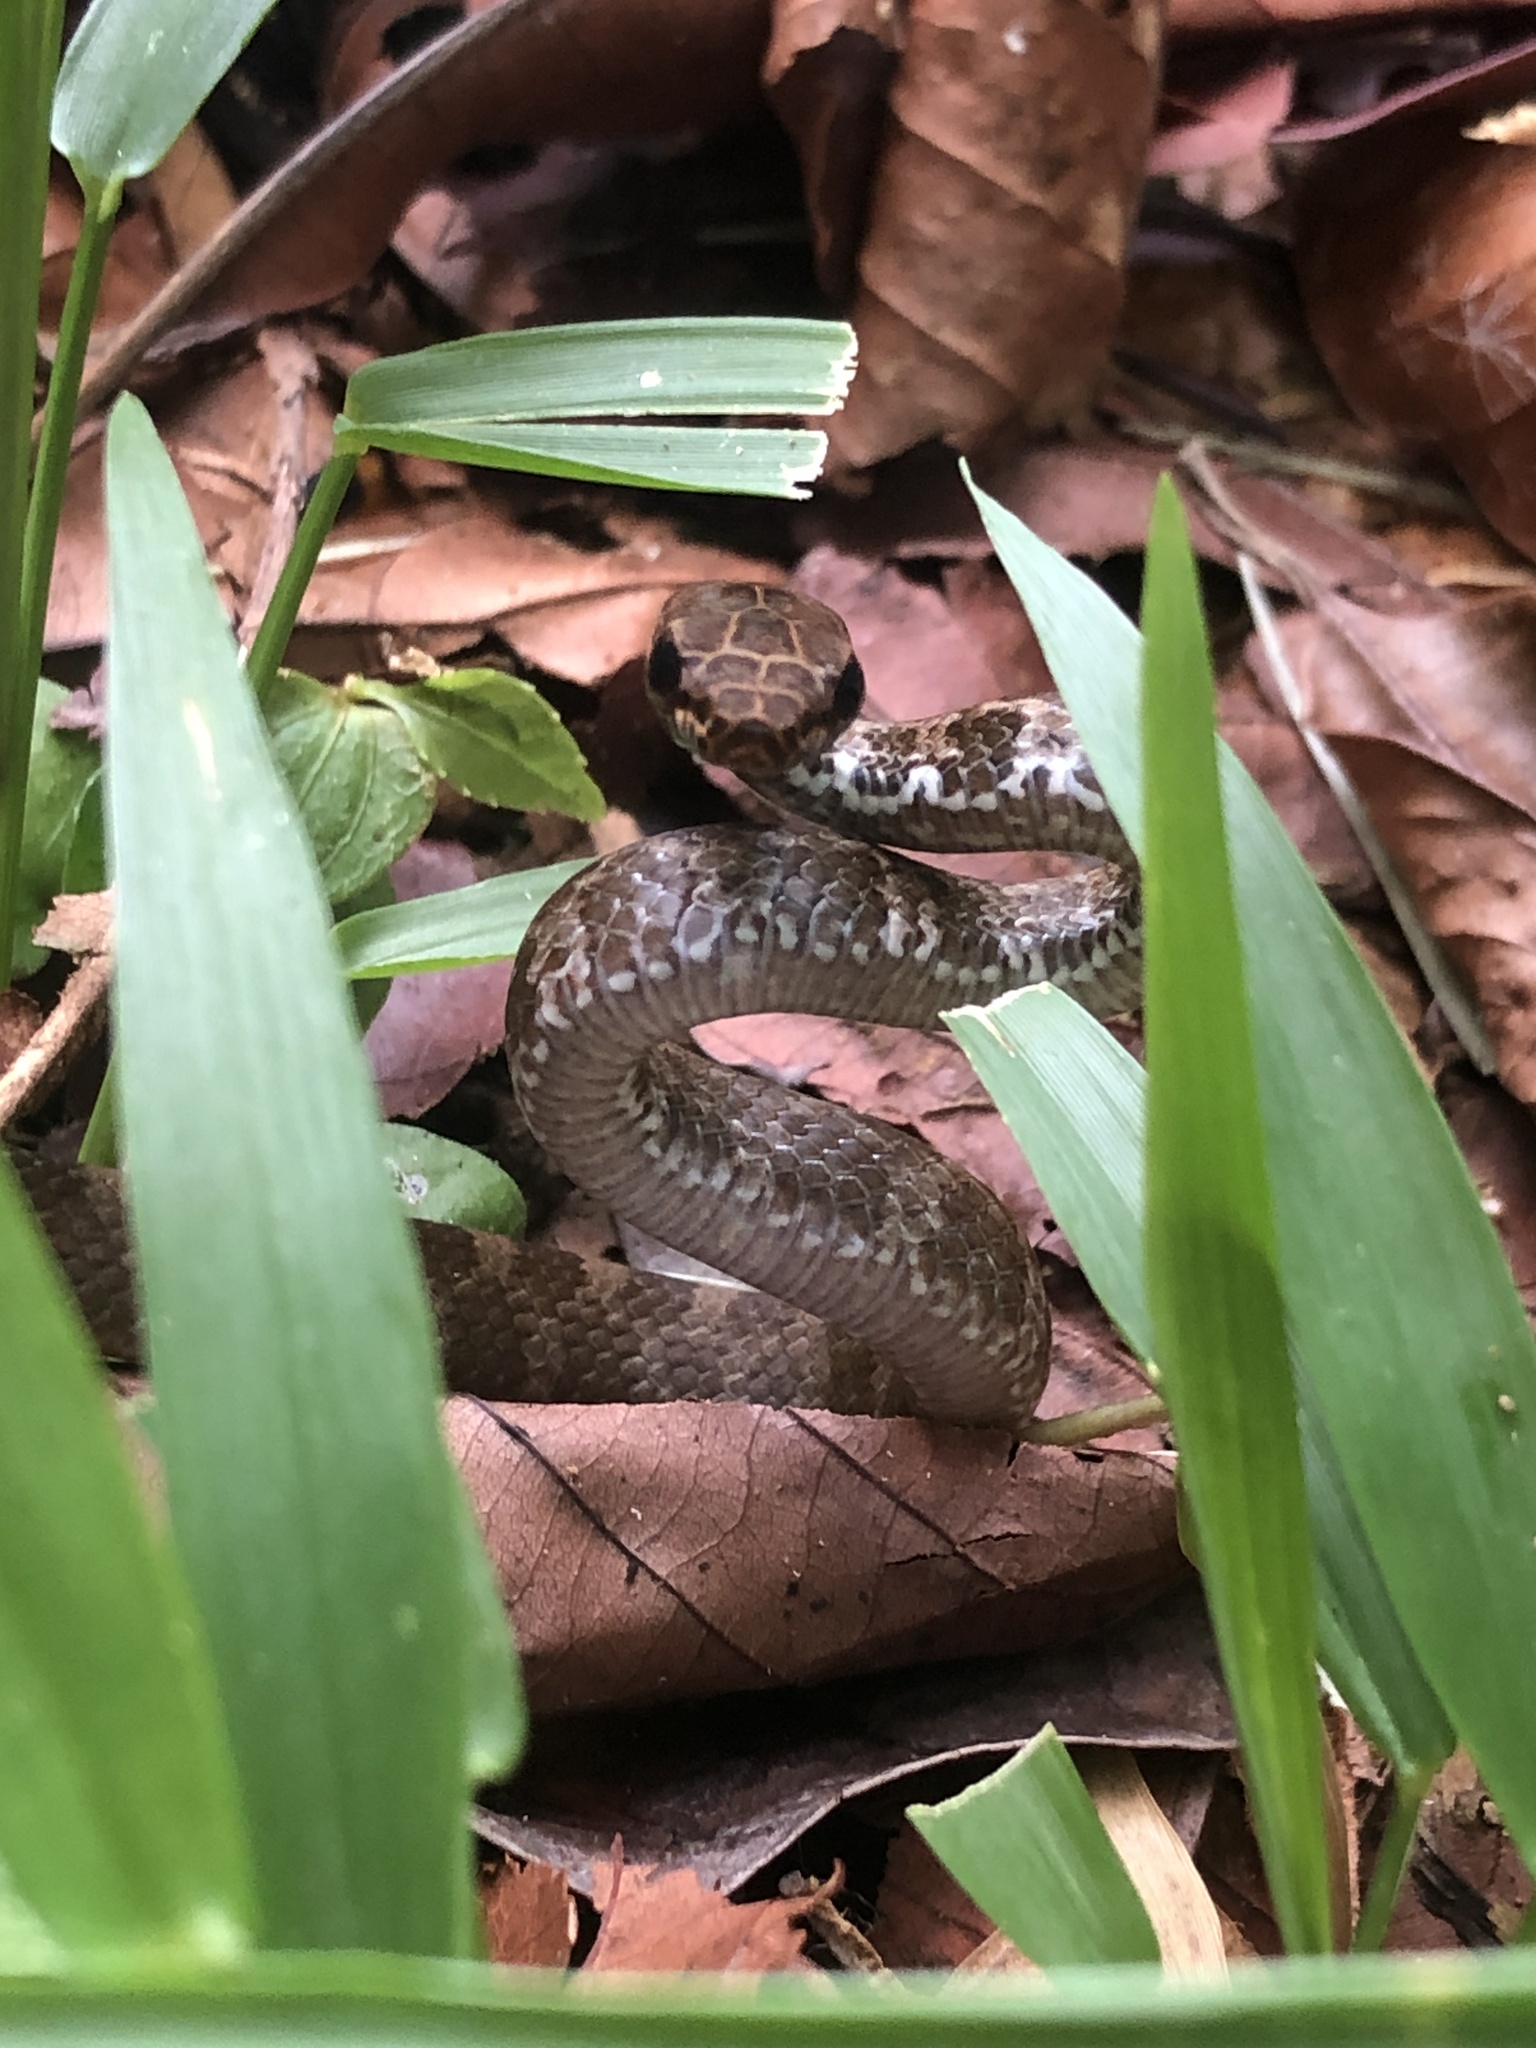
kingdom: Animalia
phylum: Chordata
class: Squamata
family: Colubridae
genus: Mastigodryas
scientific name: Mastigodryas alternatus
